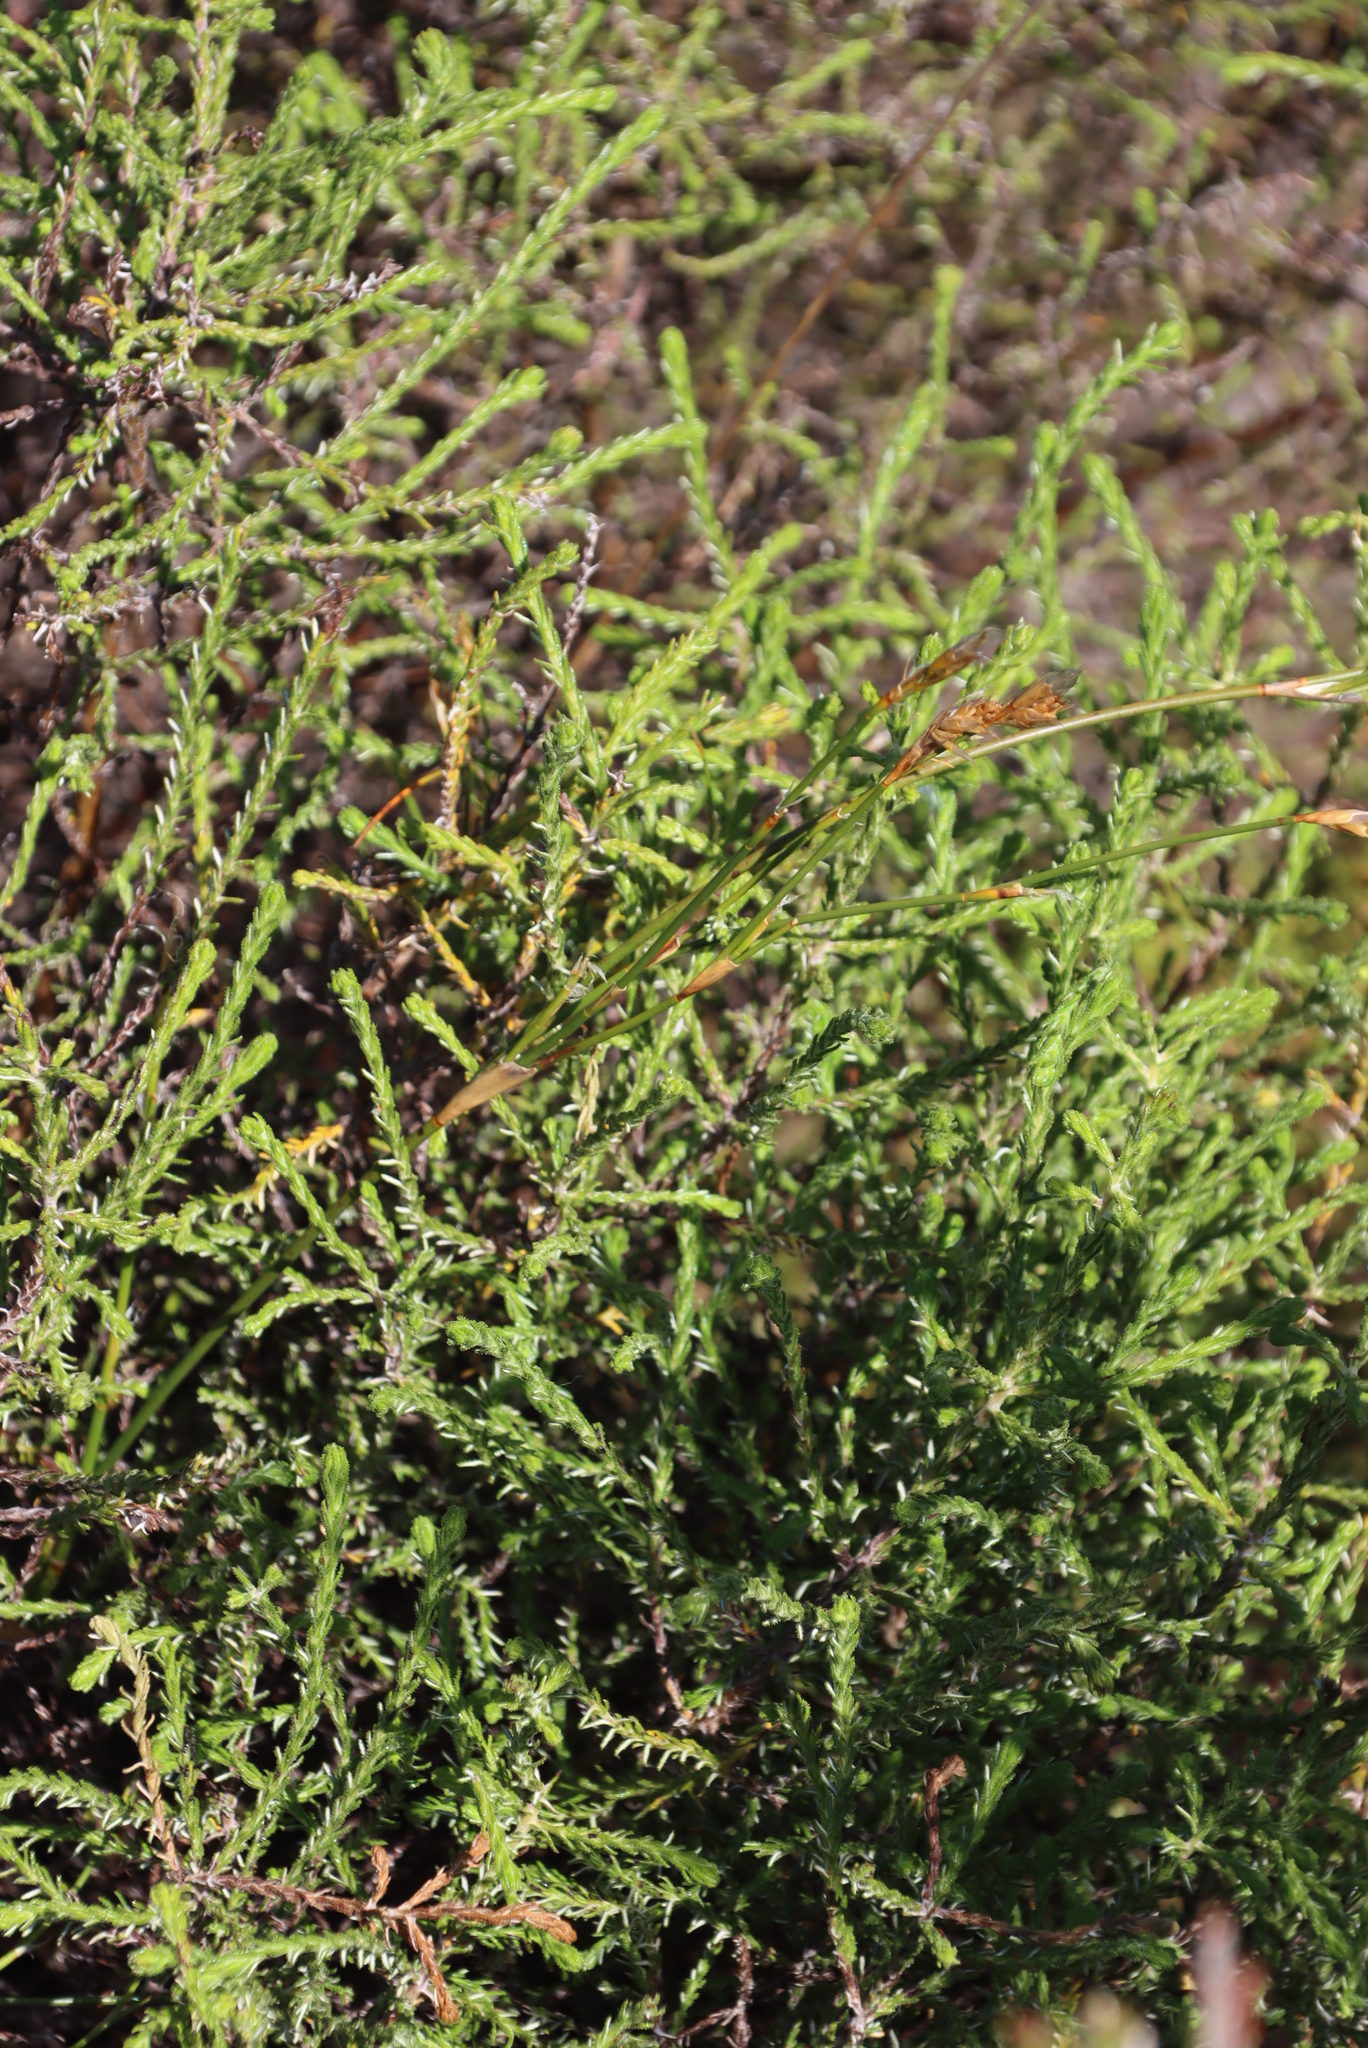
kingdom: Plantae
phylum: Tracheophyta
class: Magnoliopsida
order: Asterales
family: Asteraceae
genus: Myrovernix
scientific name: Myrovernix scaber
